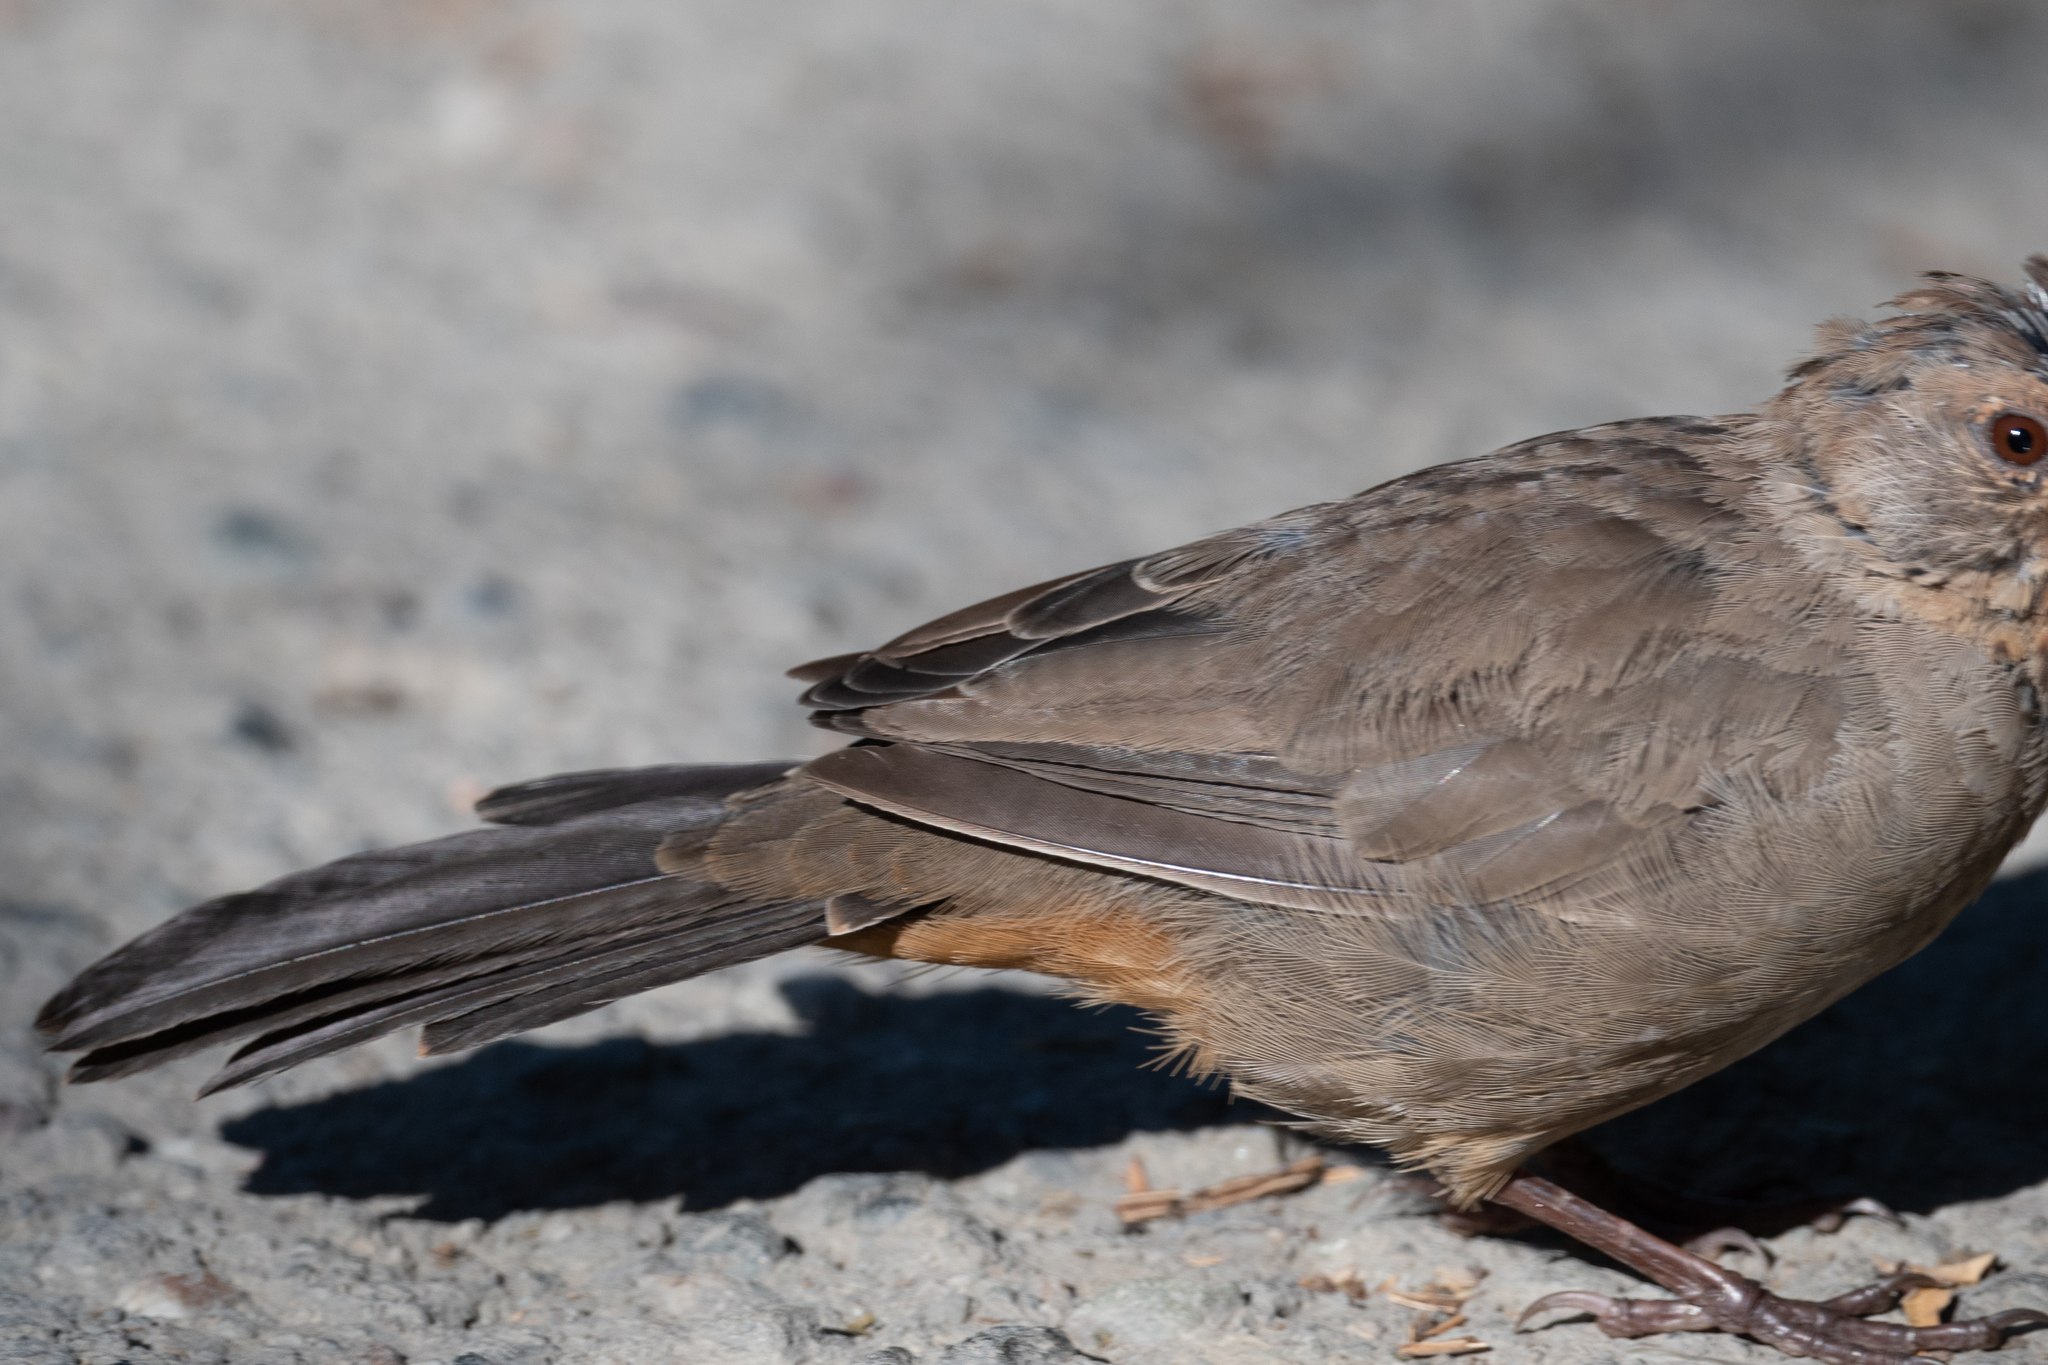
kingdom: Animalia
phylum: Chordata
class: Aves
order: Passeriformes
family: Passerellidae
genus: Melozone
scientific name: Melozone crissalis
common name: California towhee
